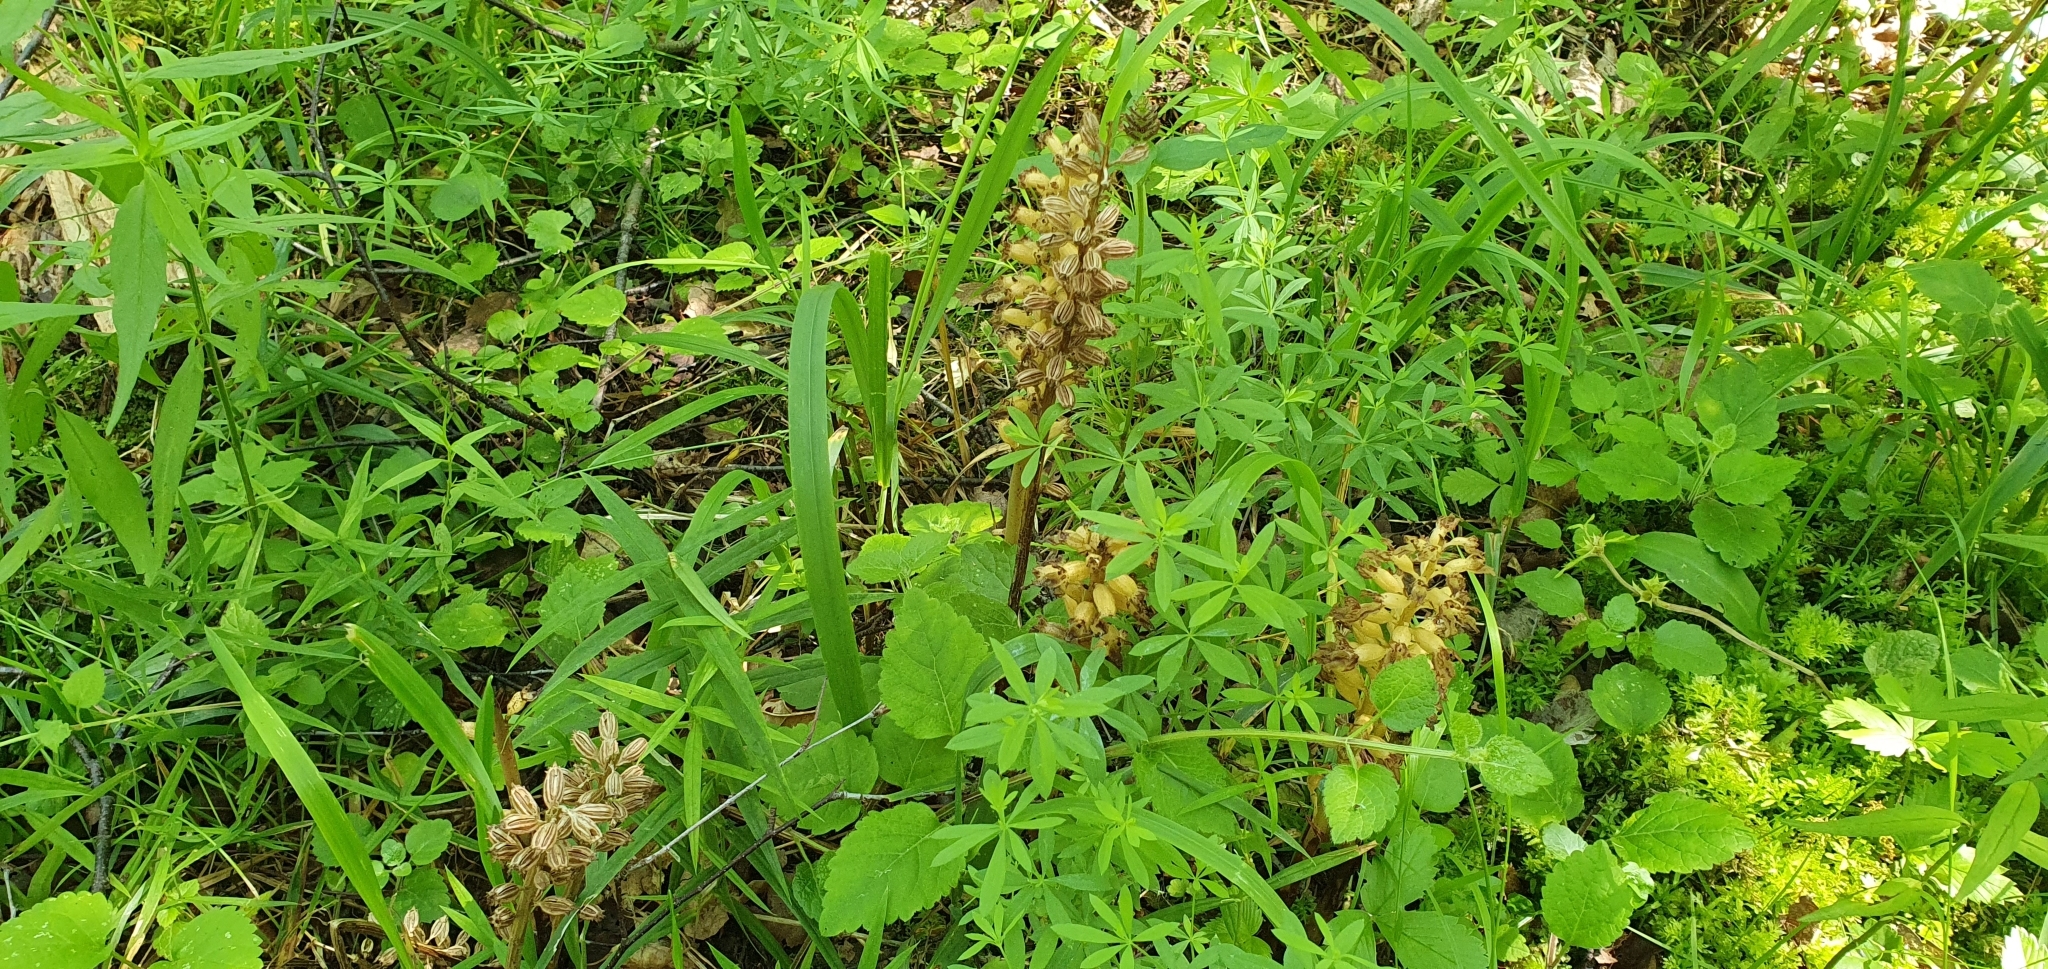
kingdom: Plantae
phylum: Tracheophyta
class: Liliopsida
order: Asparagales
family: Orchidaceae
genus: Neottia
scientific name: Neottia nidus-avis
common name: Bird's-nest orchid
